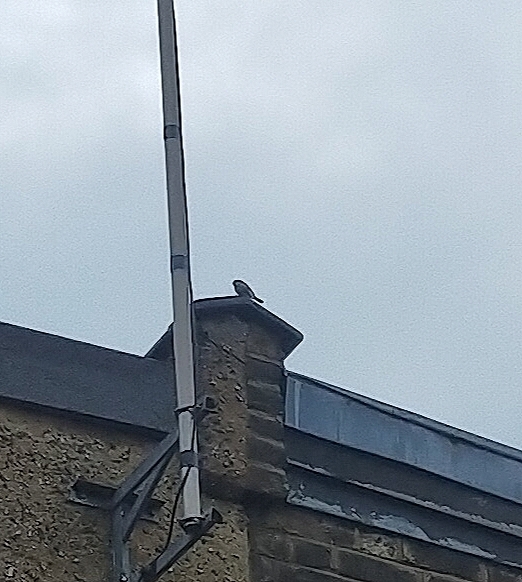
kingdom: Animalia
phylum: Chordata
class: Aves
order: Passeriformes
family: Passeridae
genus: Passer
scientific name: Passer domesticus
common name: House sparrow
